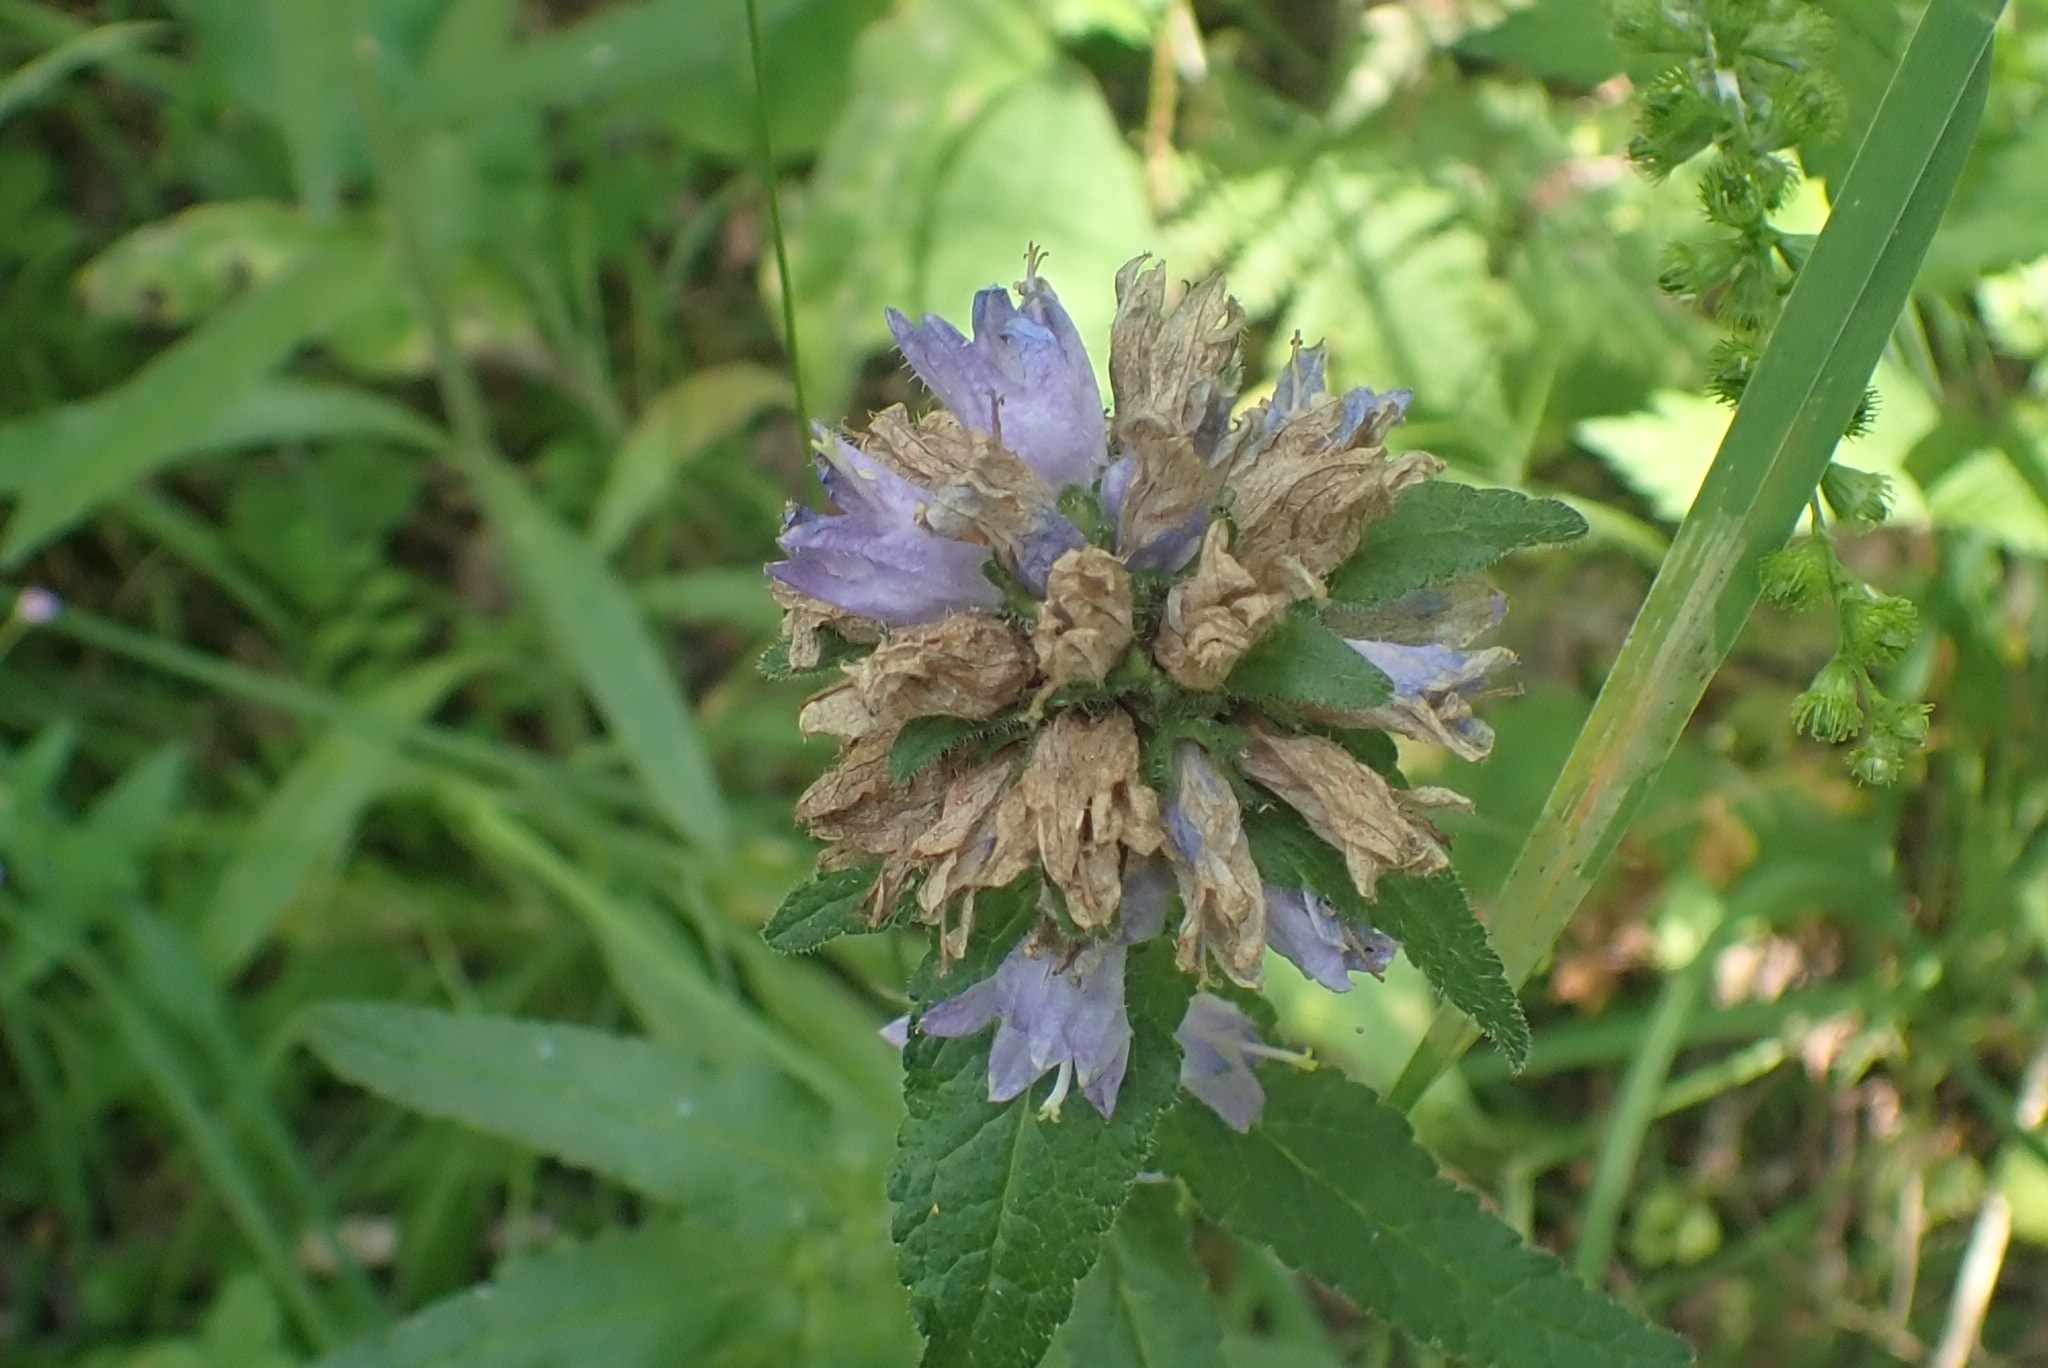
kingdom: Plantae
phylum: Tracheophyta
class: Magnoliopsida
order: Asterales
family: Campanulaceae
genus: Campanula
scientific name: Campanula cervicaria
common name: Bristly bellflower
